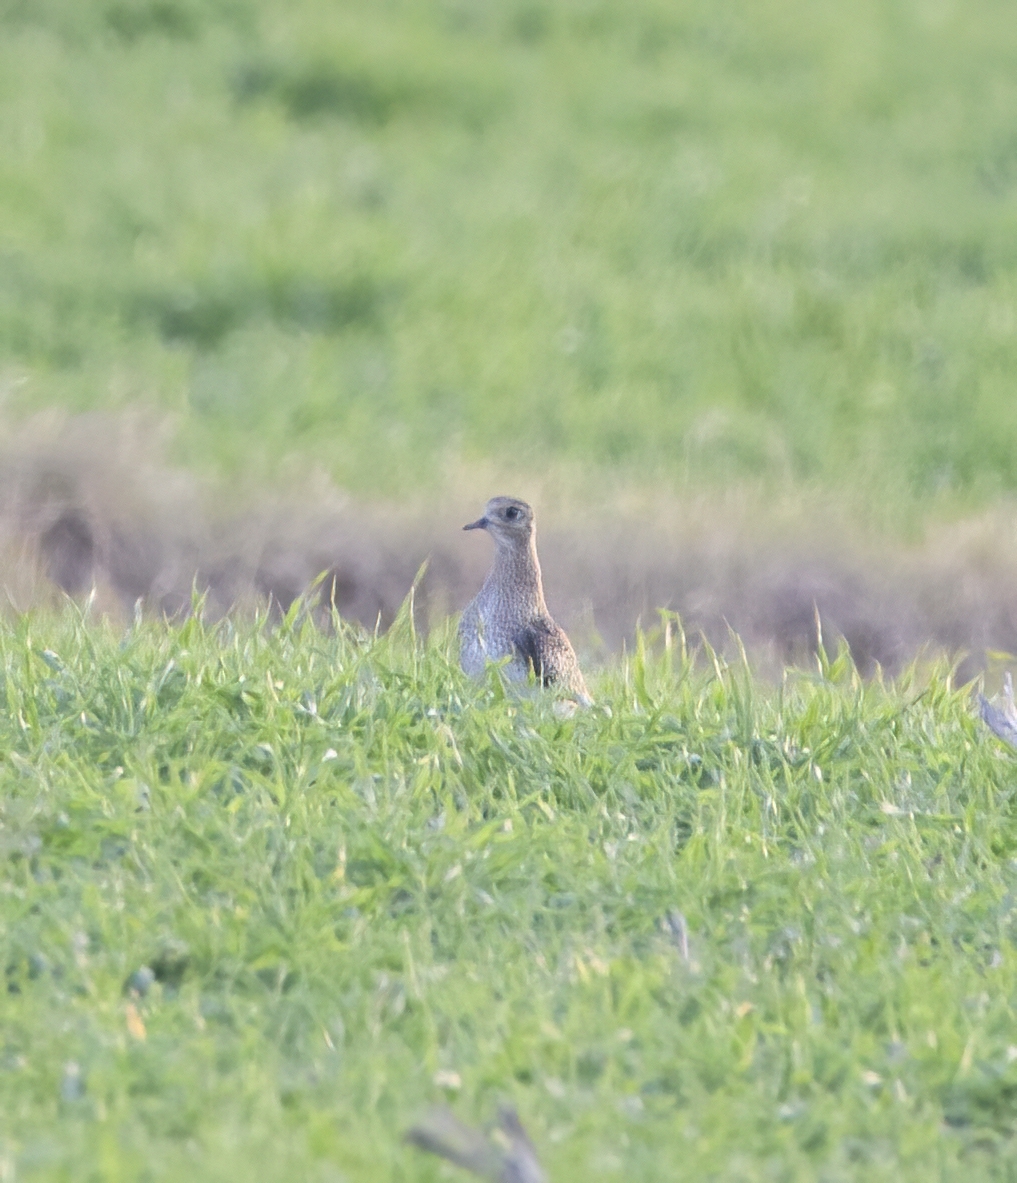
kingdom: Animalia
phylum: Chordata
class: Aves
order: Charadriiformes
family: Charadriidae
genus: Pluvialis
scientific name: Pluvialis apricaria
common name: European golden plover
